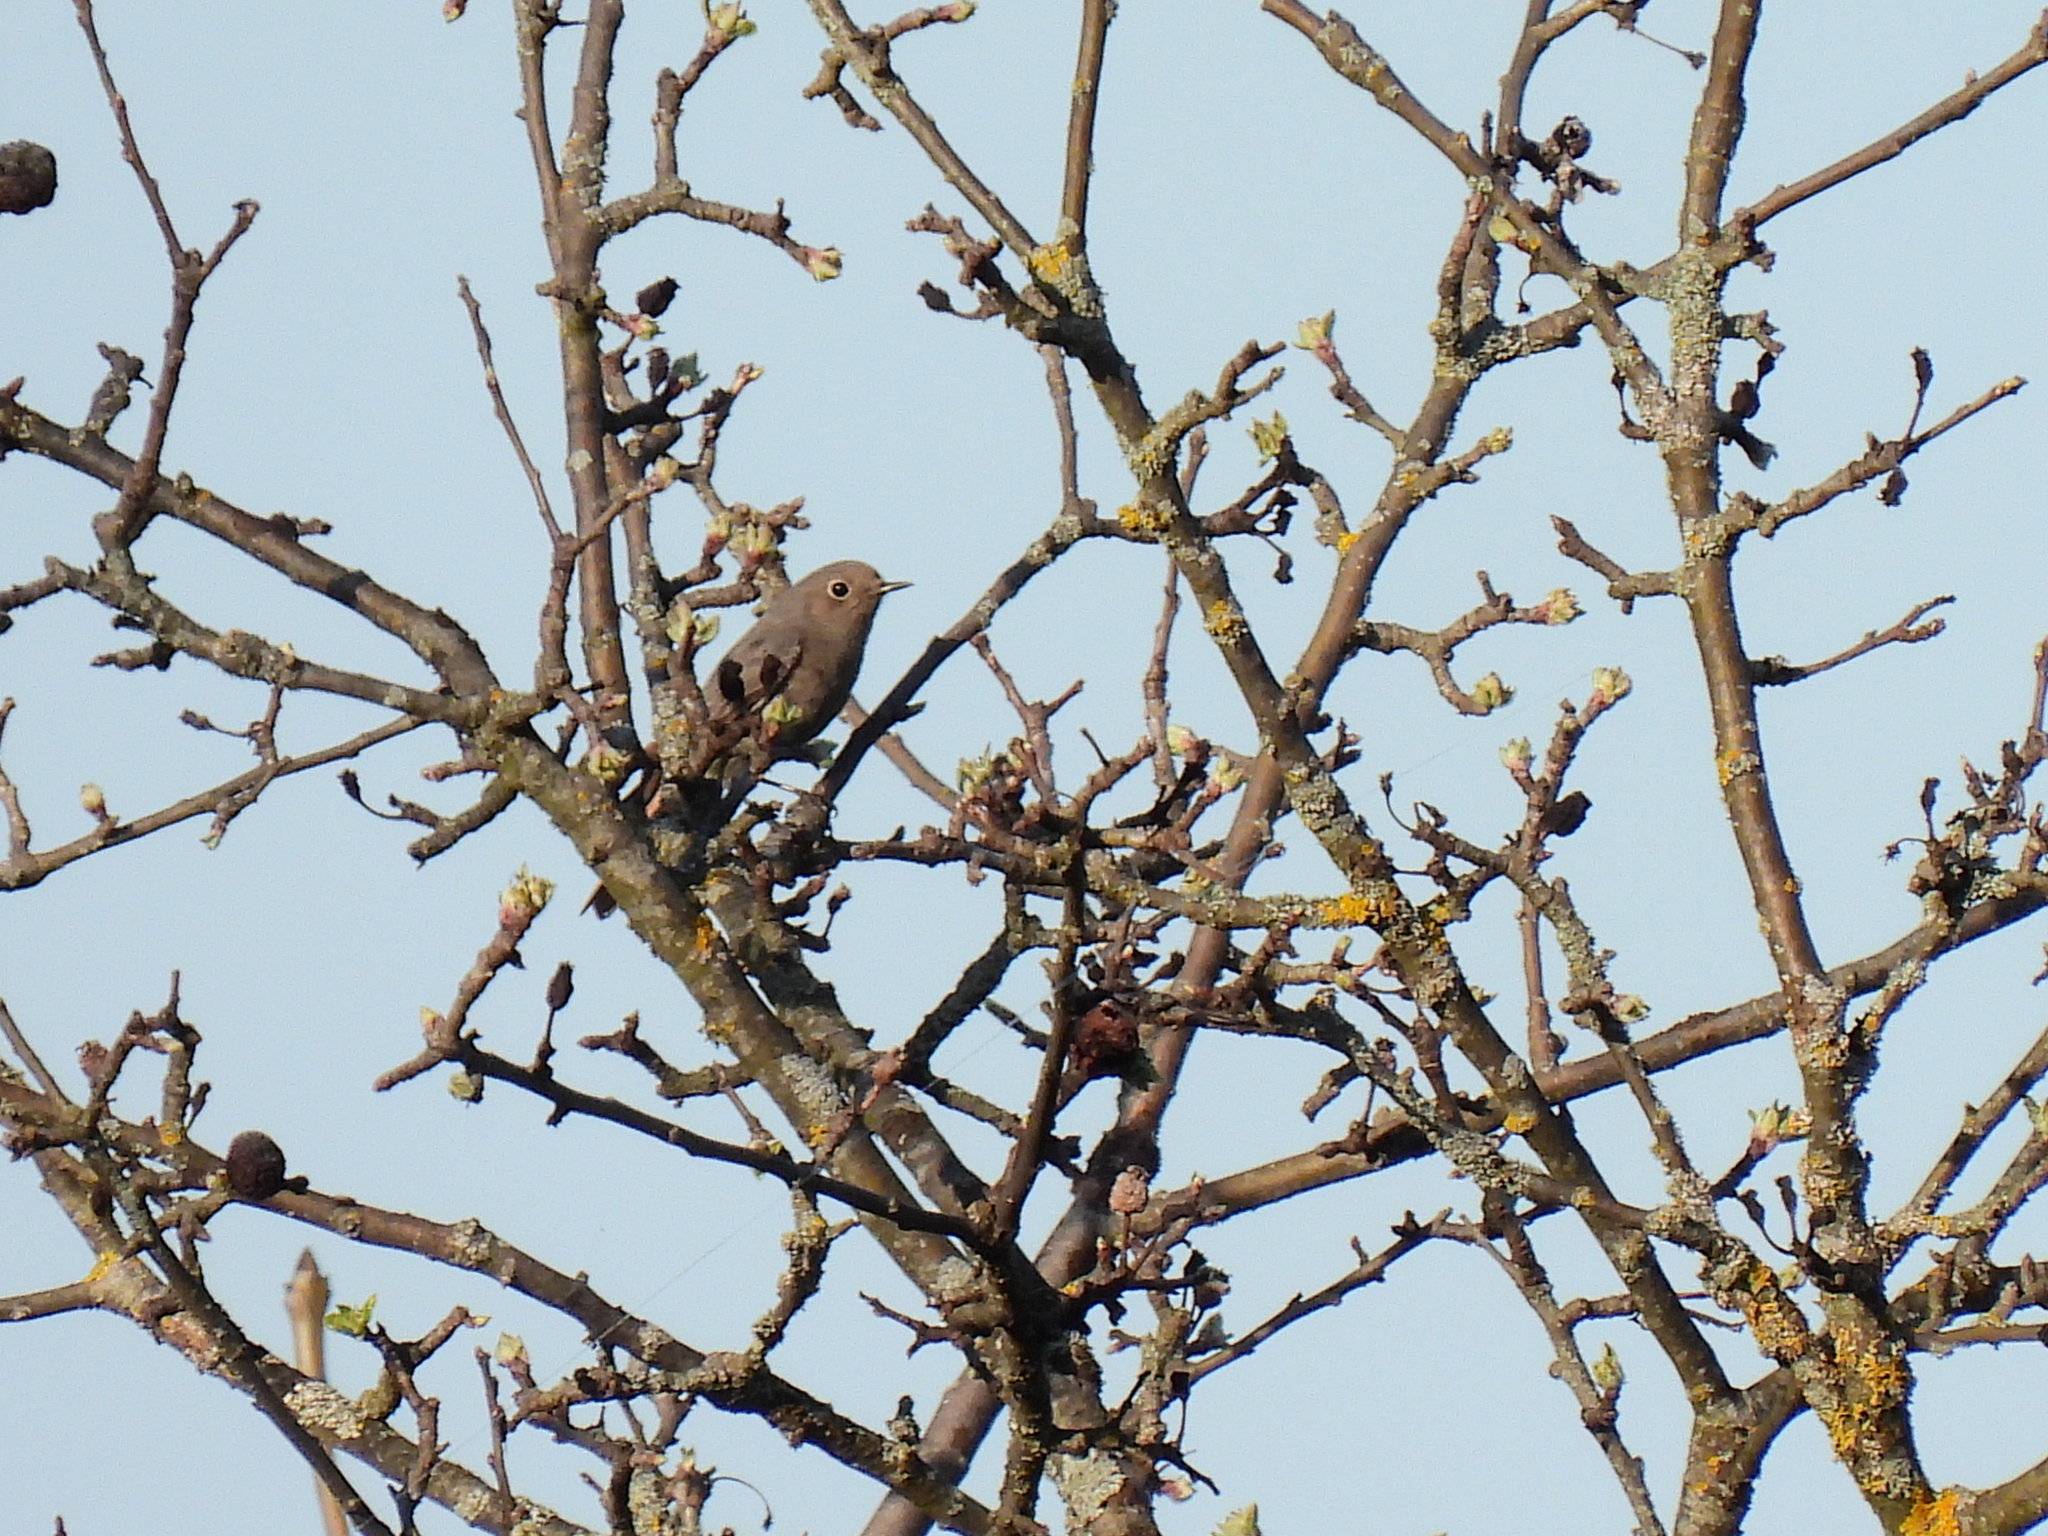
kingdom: Animalia
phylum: Chordata
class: Aves
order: Passeriformes
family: Muscicapidae
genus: Phoenicurus
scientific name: Phoenicurus ochruros
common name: Black redstart
